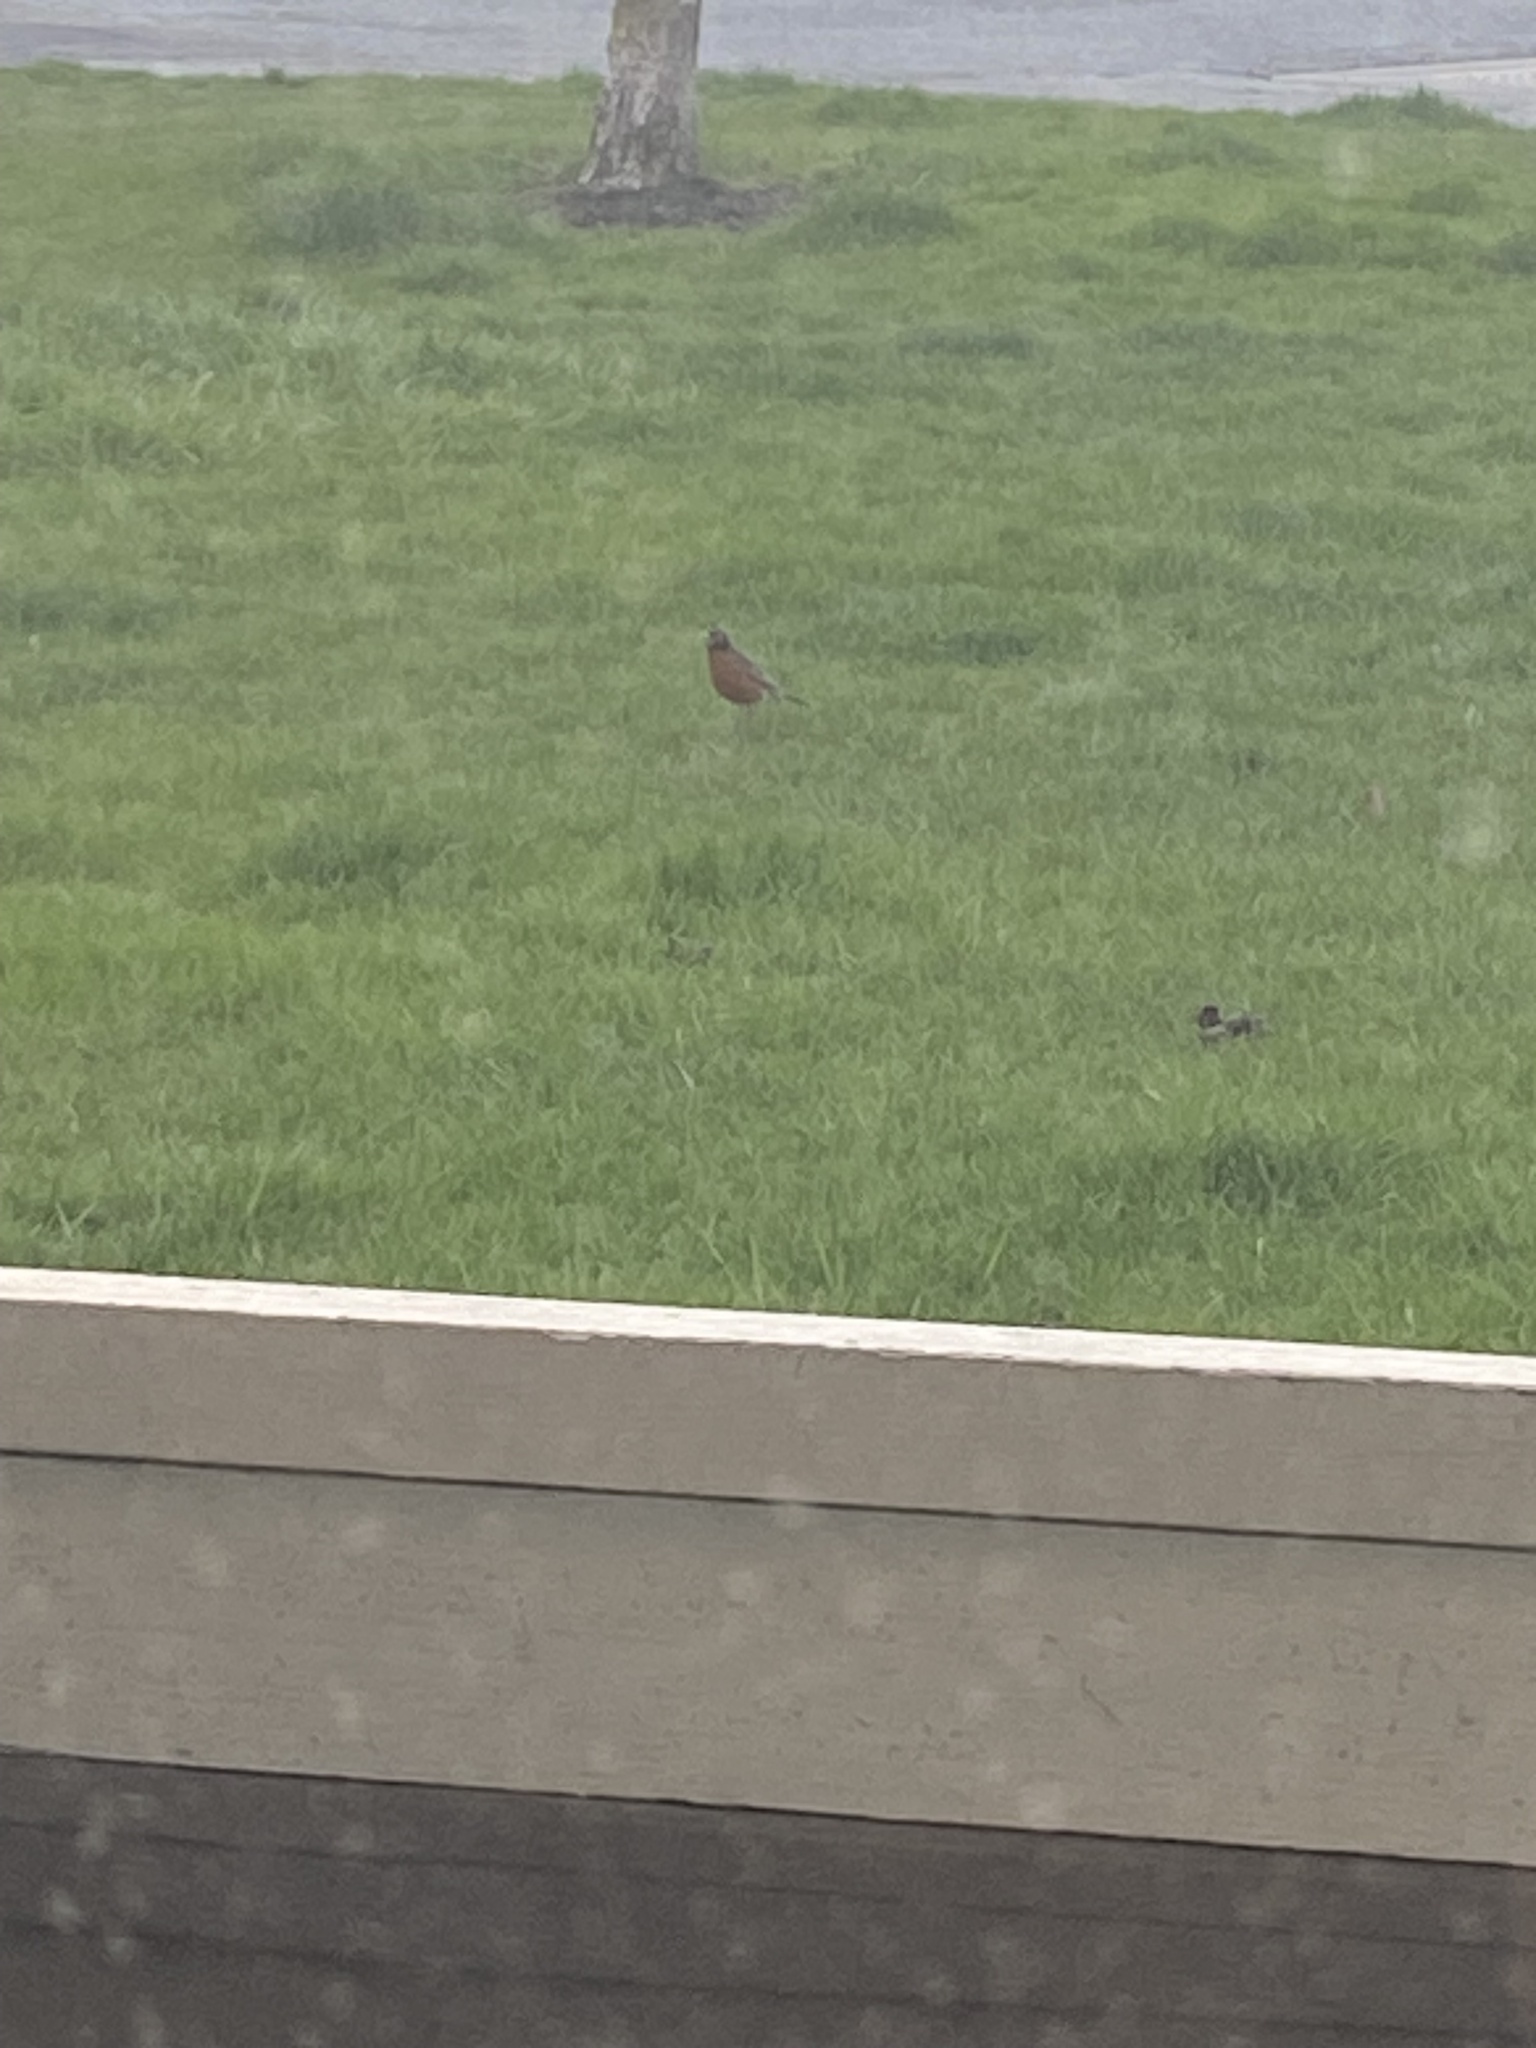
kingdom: Animalia
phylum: Chordata
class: Aves
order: Passeriformes
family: Turdidae
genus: Turdus
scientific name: Turdus migratorius
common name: American robin
